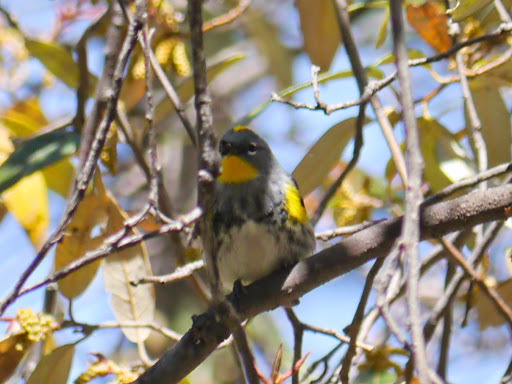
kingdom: Animalia
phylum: Chordata
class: Aves
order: Passeriformes
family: Parulidae
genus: Setophaga
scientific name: Setophaga auduboni
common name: Audubon's warbler
